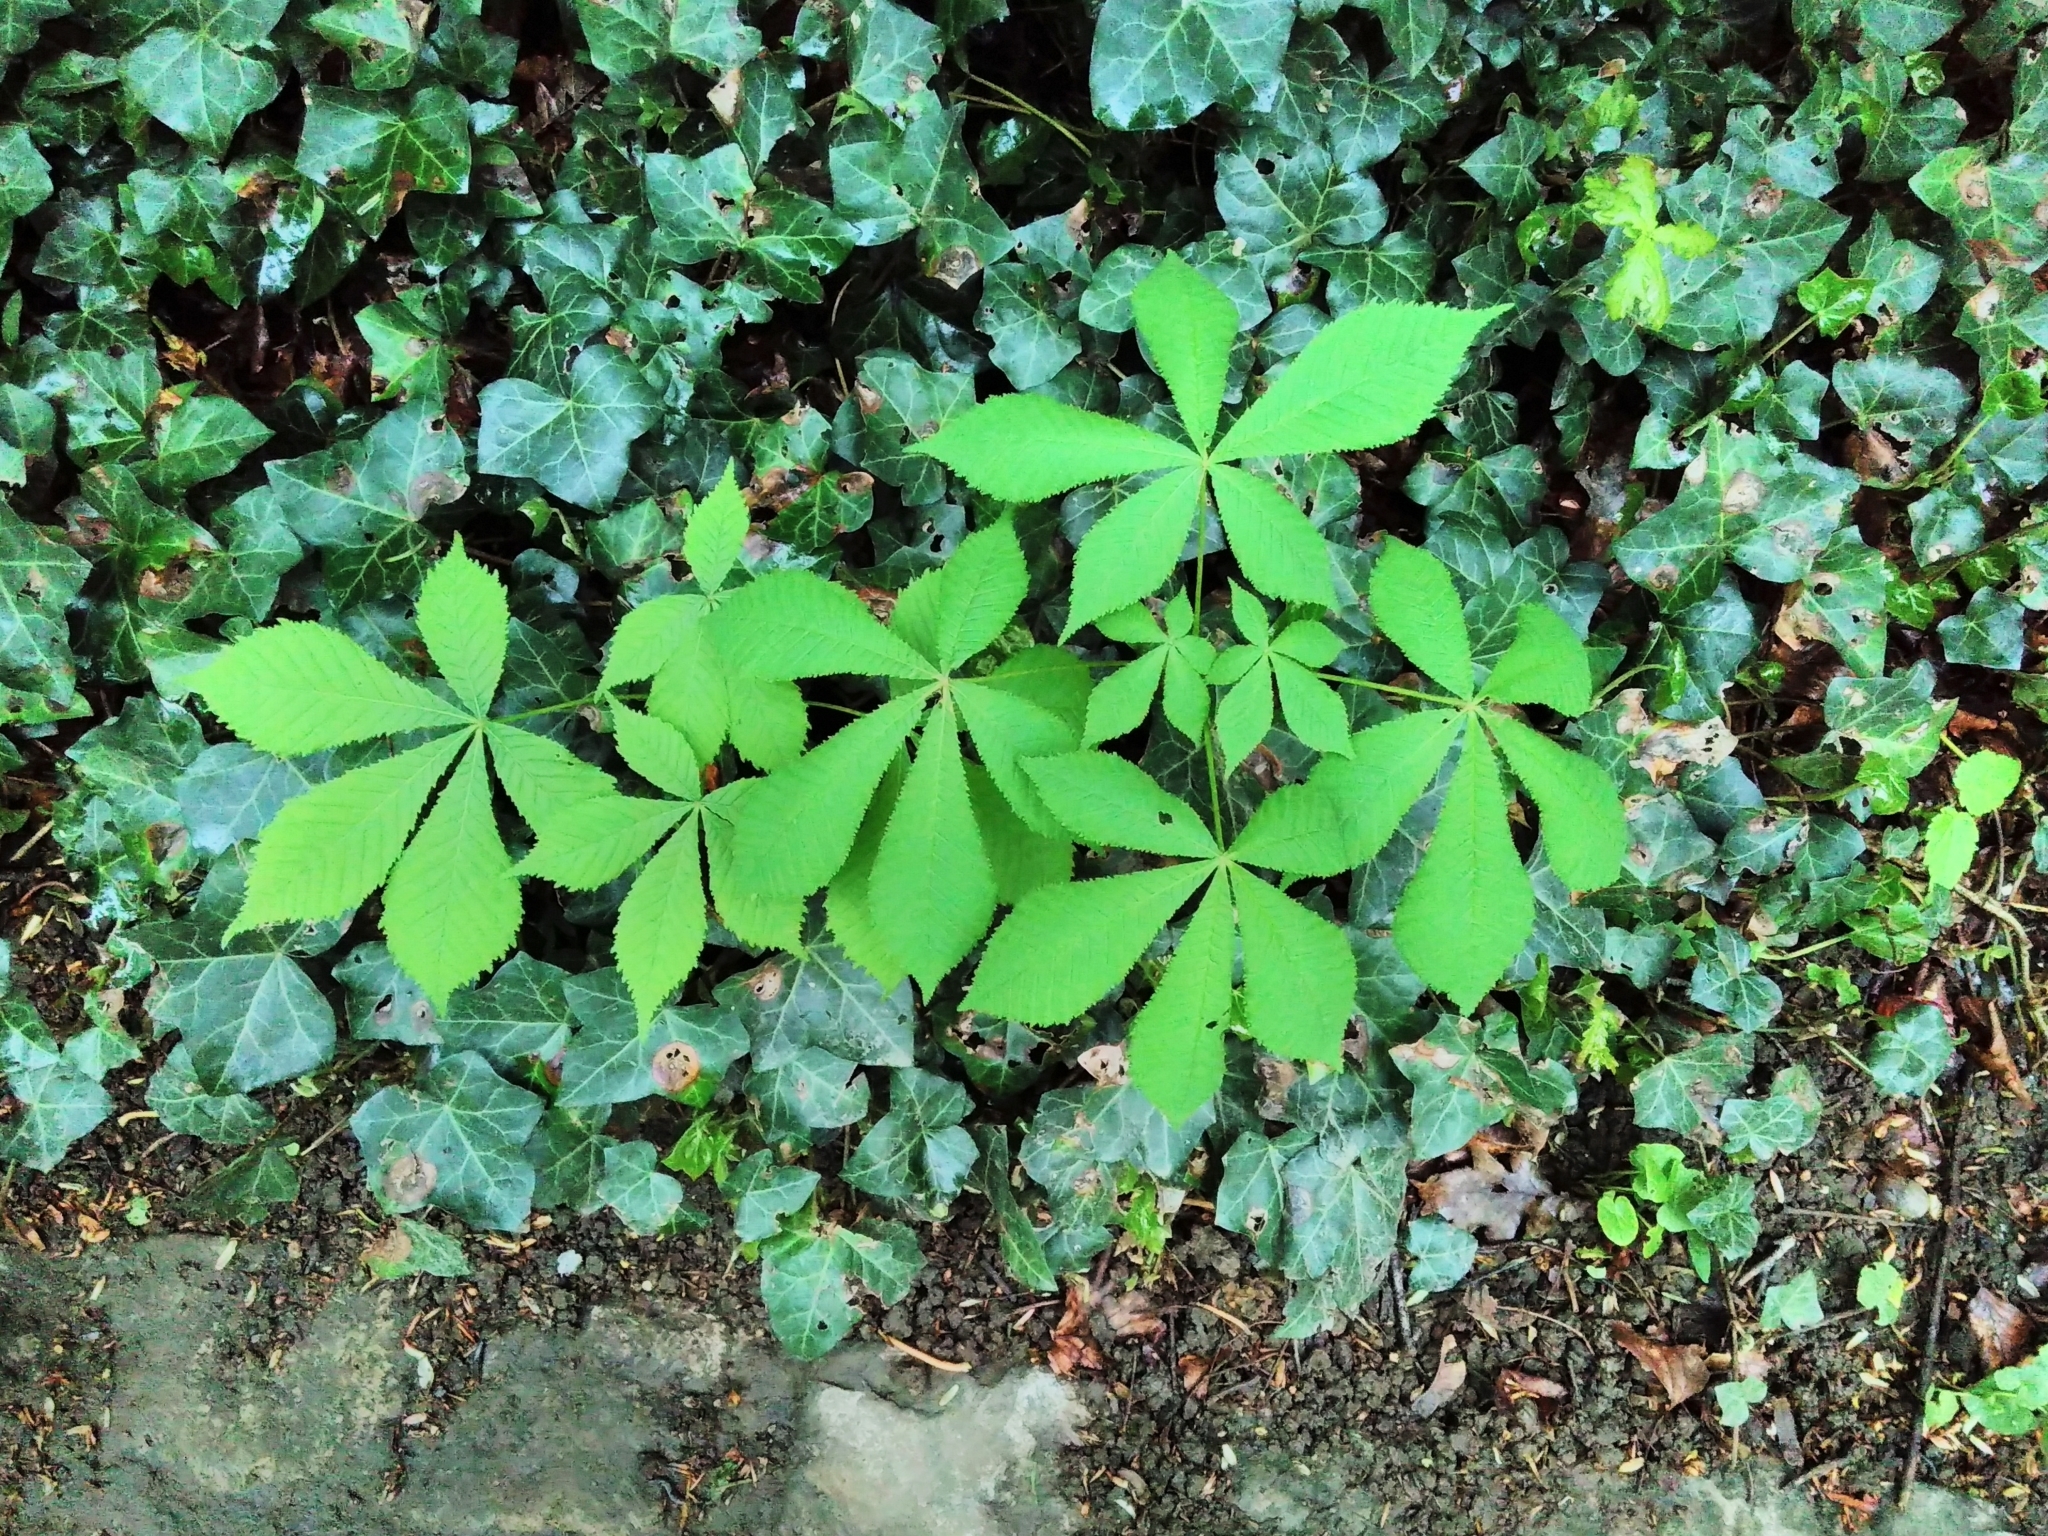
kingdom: Plantae
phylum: Tracheophyta
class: Magnoliopsida
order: Sapindales
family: Sapindaceae
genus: Aesculus
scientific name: Aesculus hippocastanum
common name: Horse-chestnut
